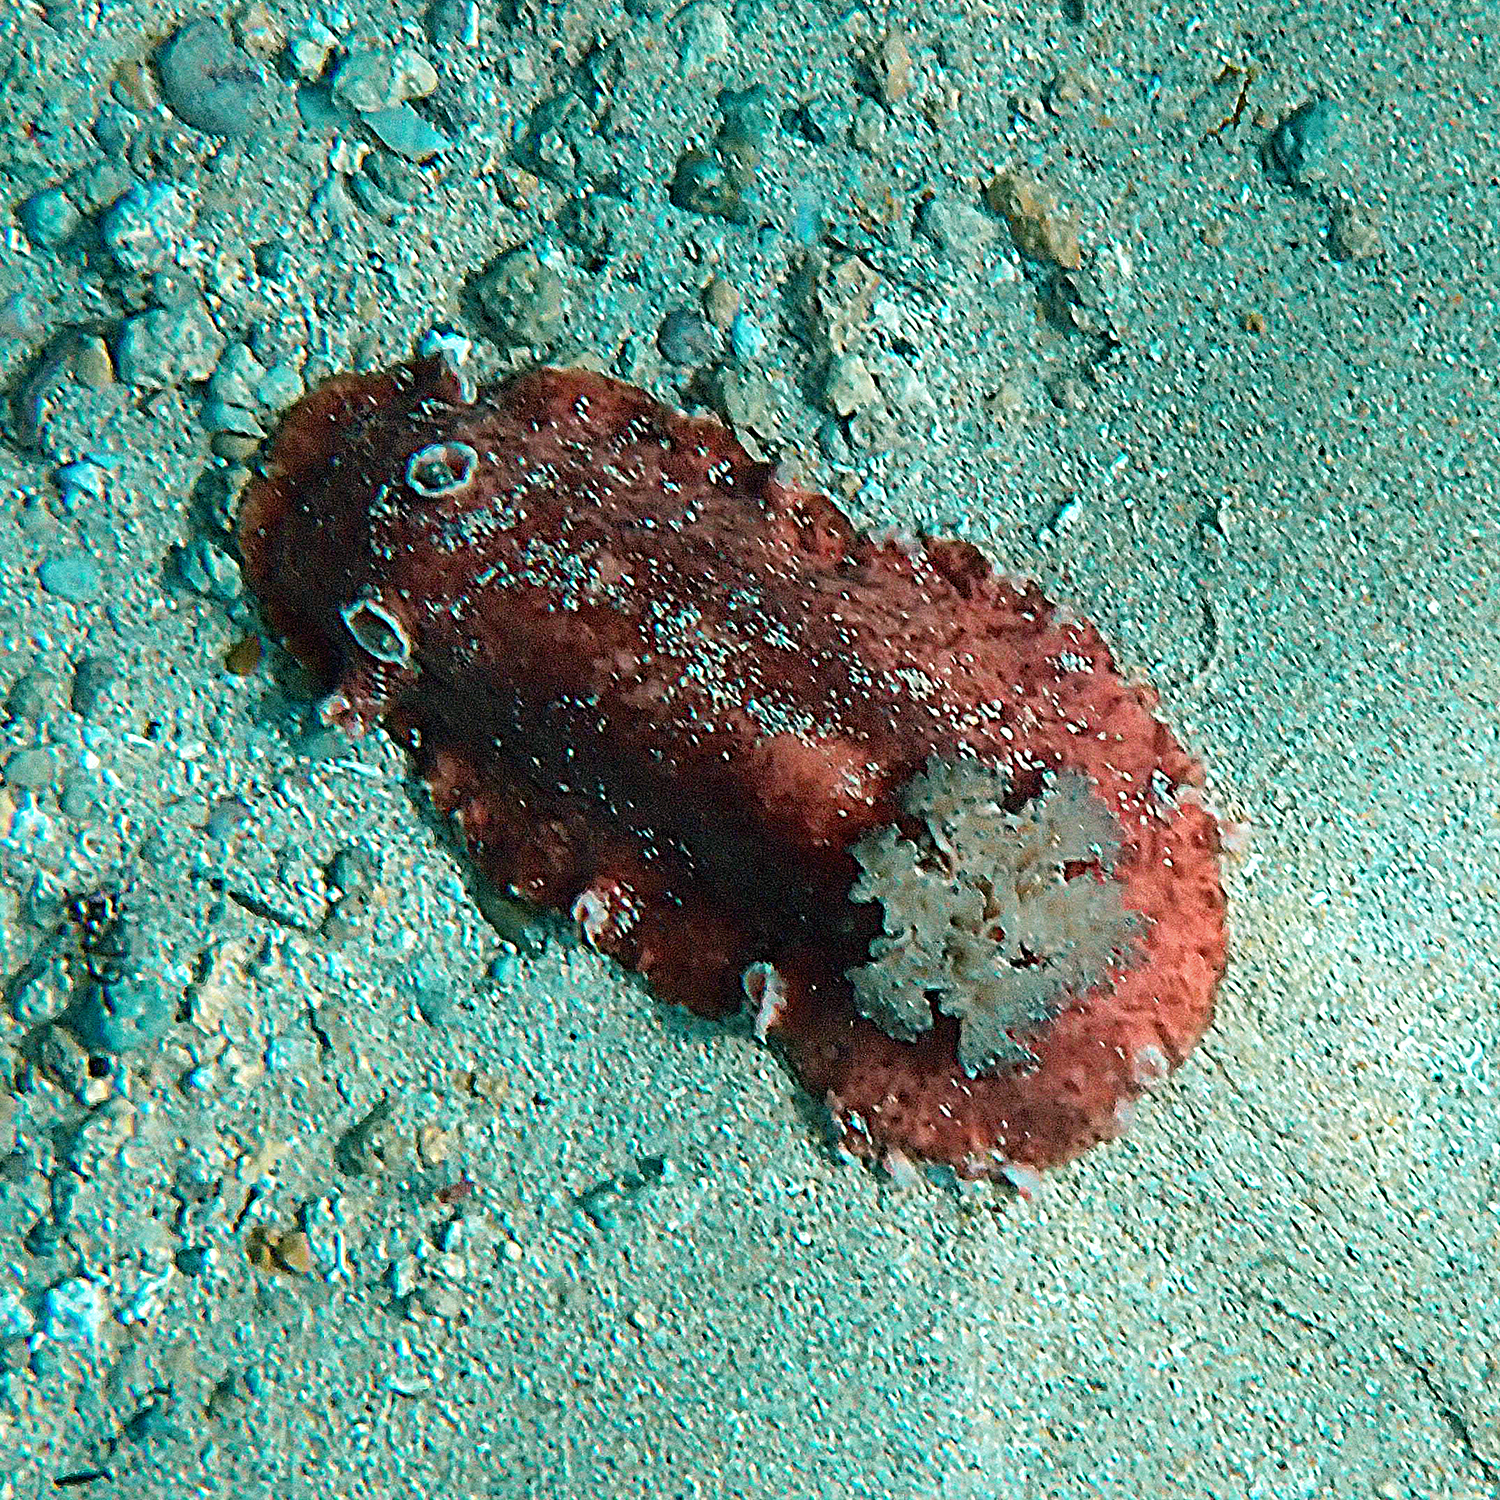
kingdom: Animalia
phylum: Mollusca
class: Gastropoda
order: Nudibranchia
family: Discodorididae
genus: Platydoris
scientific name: Platydoris cinereobranchiata
